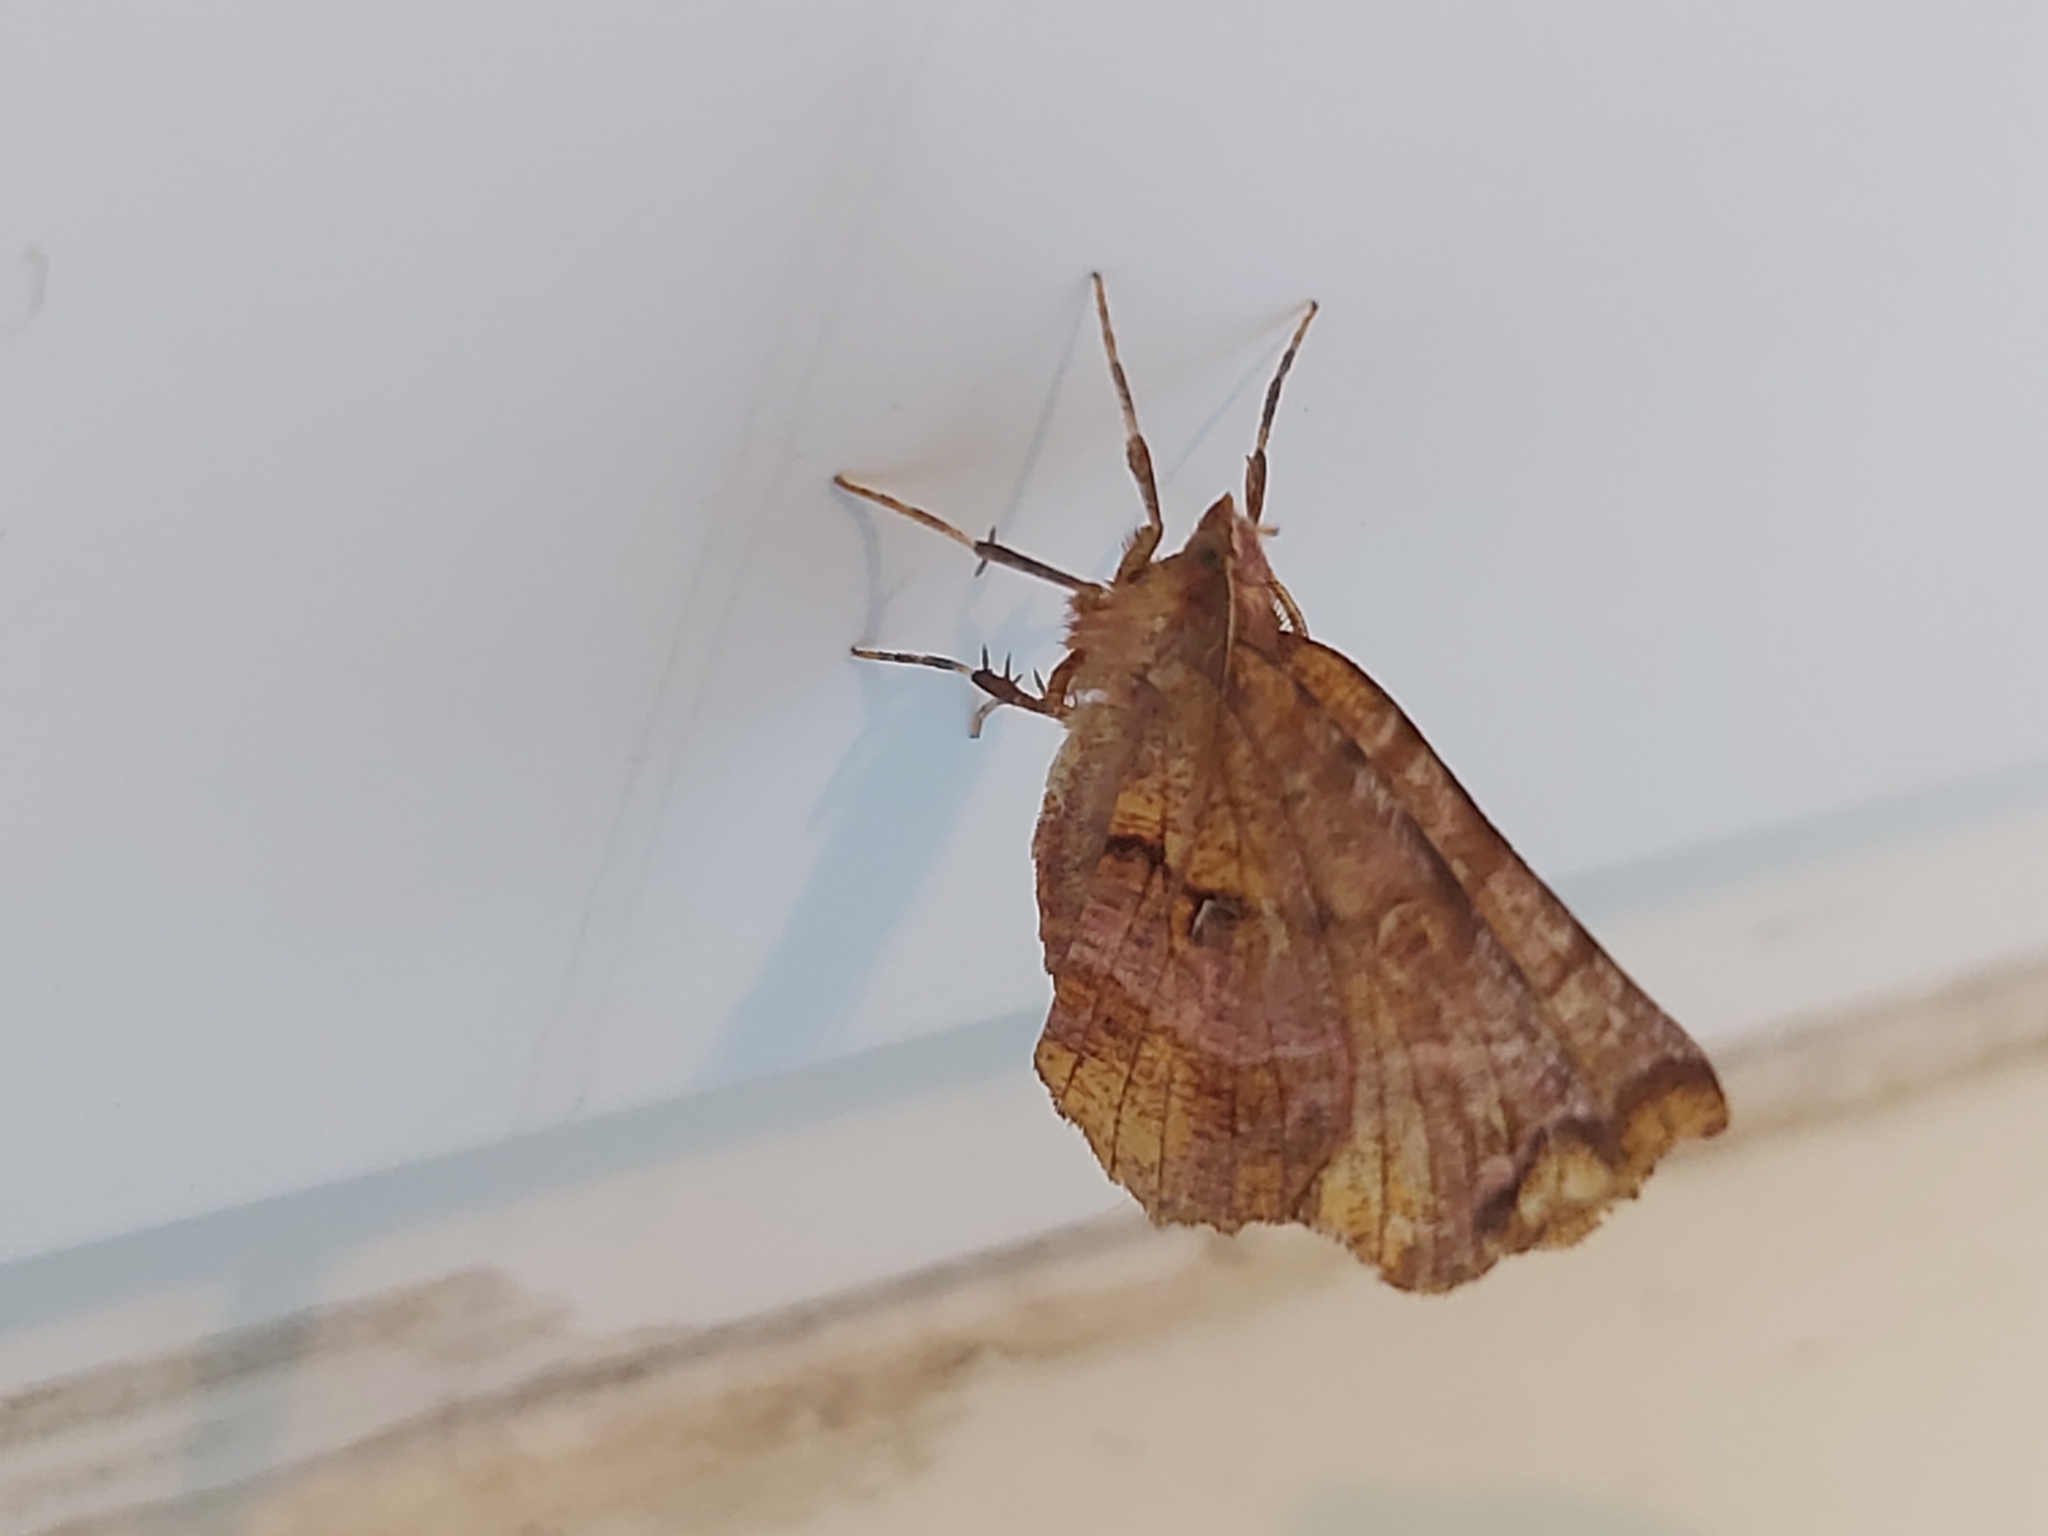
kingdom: Animalia
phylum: Arthropoda
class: Insecta
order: Lepidoptera
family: Geometridae
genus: Selenia
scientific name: Selenia dentaria
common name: Early thorn
